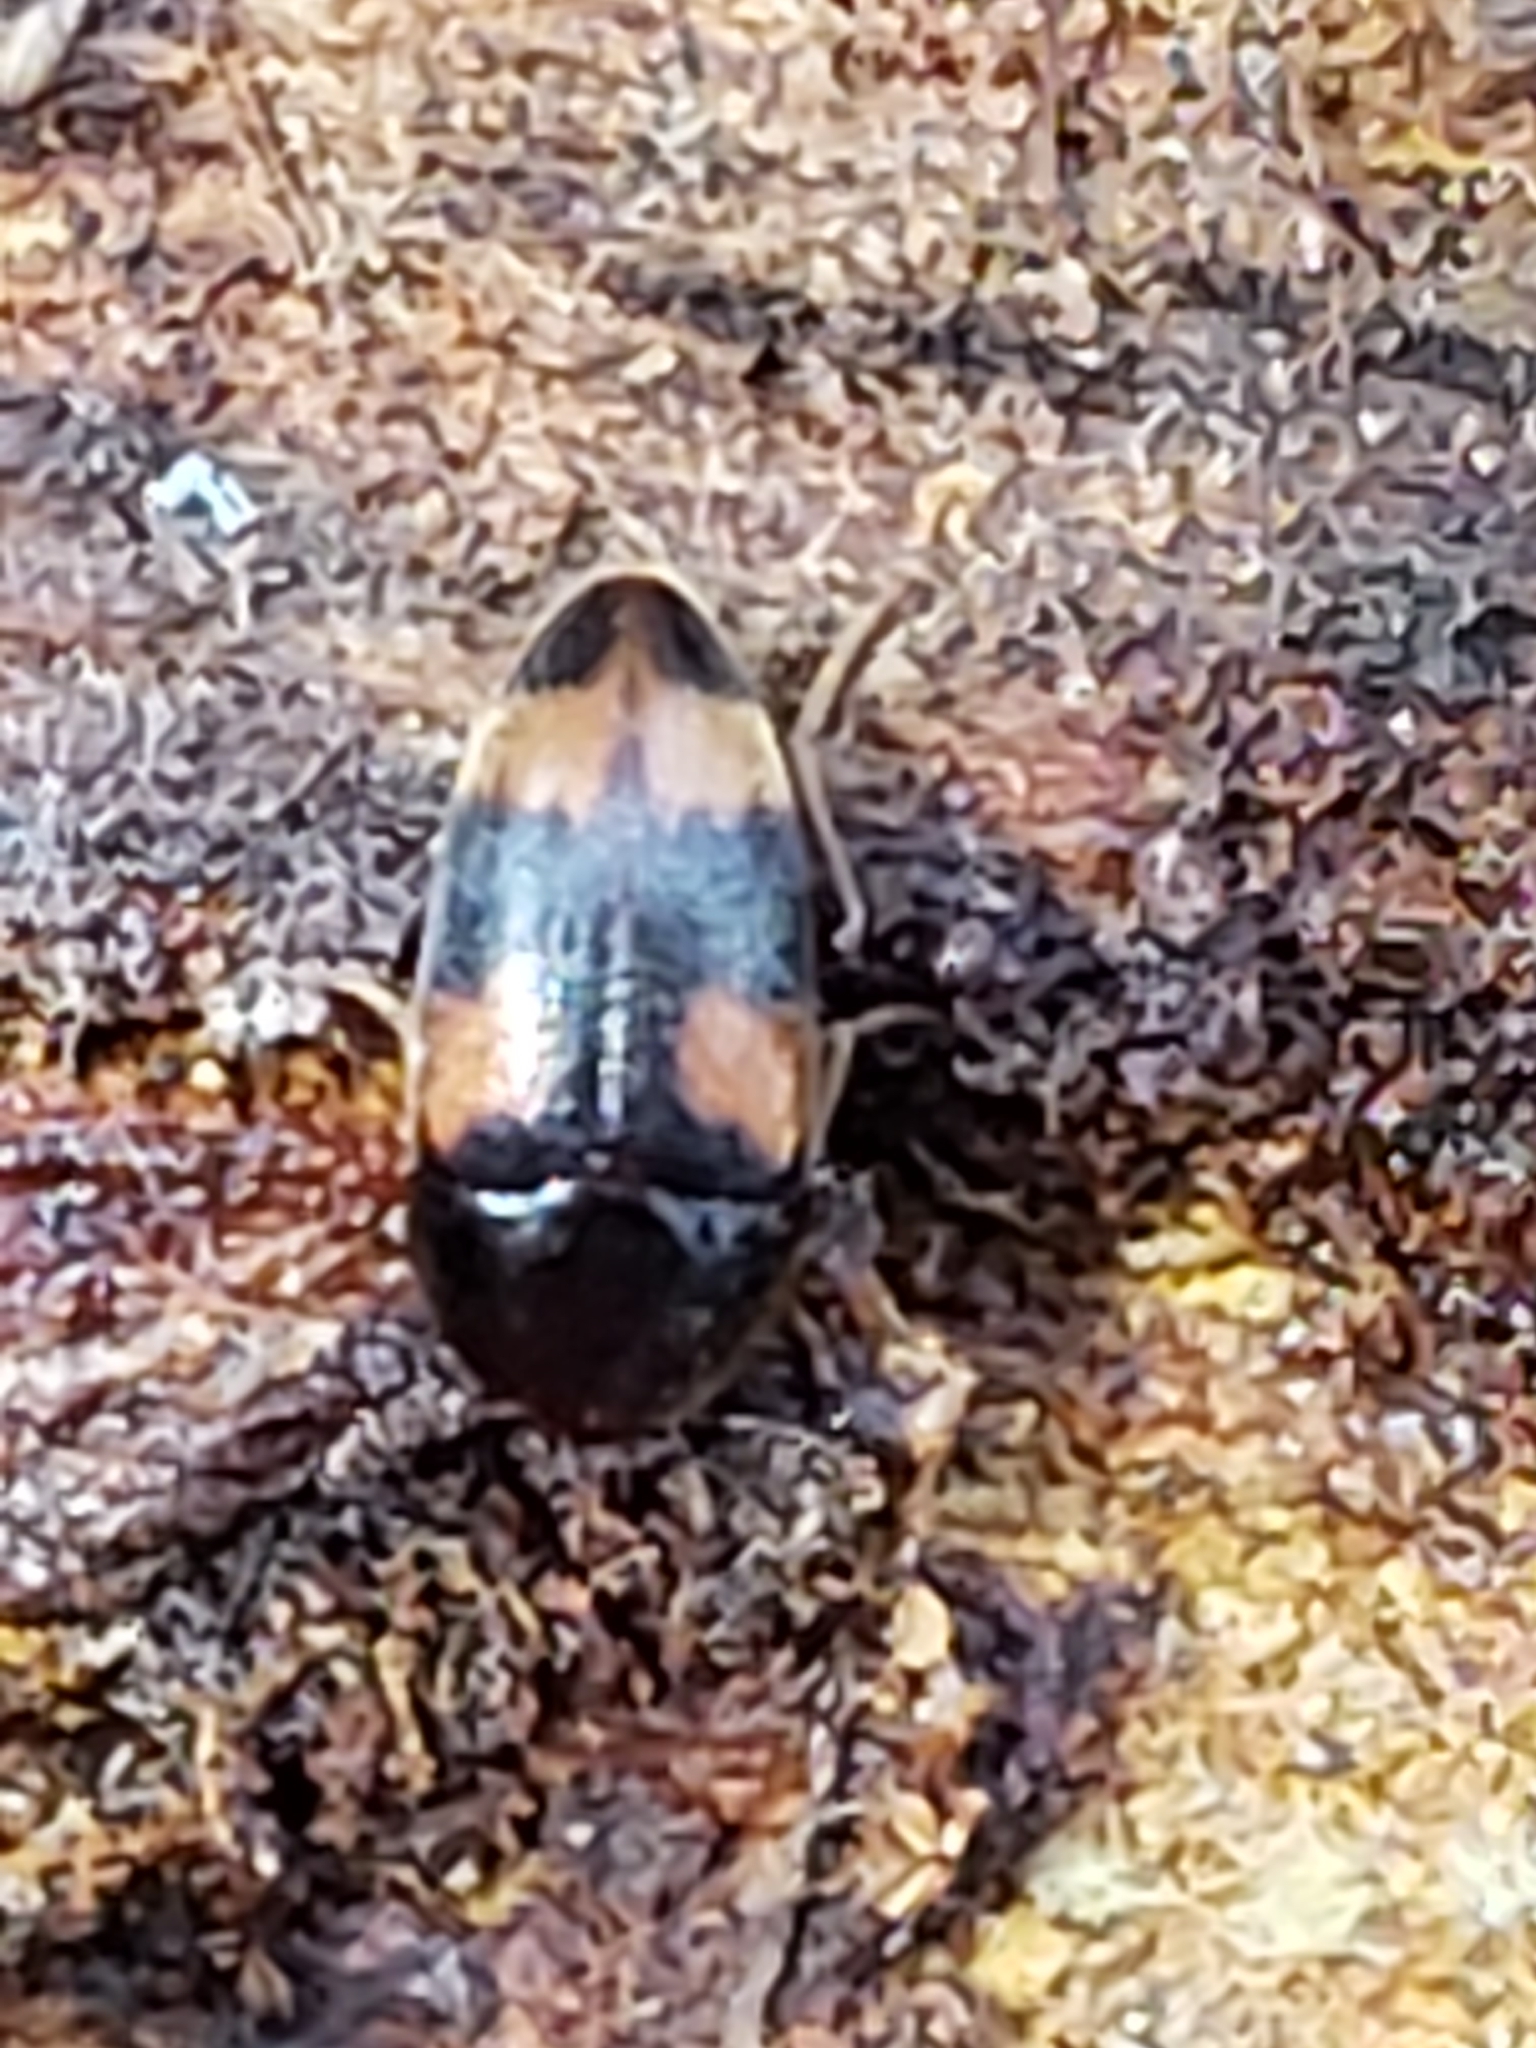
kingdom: Animalia
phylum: Arthropoda
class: Insecta
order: Coleoptera
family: Tetratomidae
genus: Holostrophus
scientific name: Holostrophus bifasciatus
